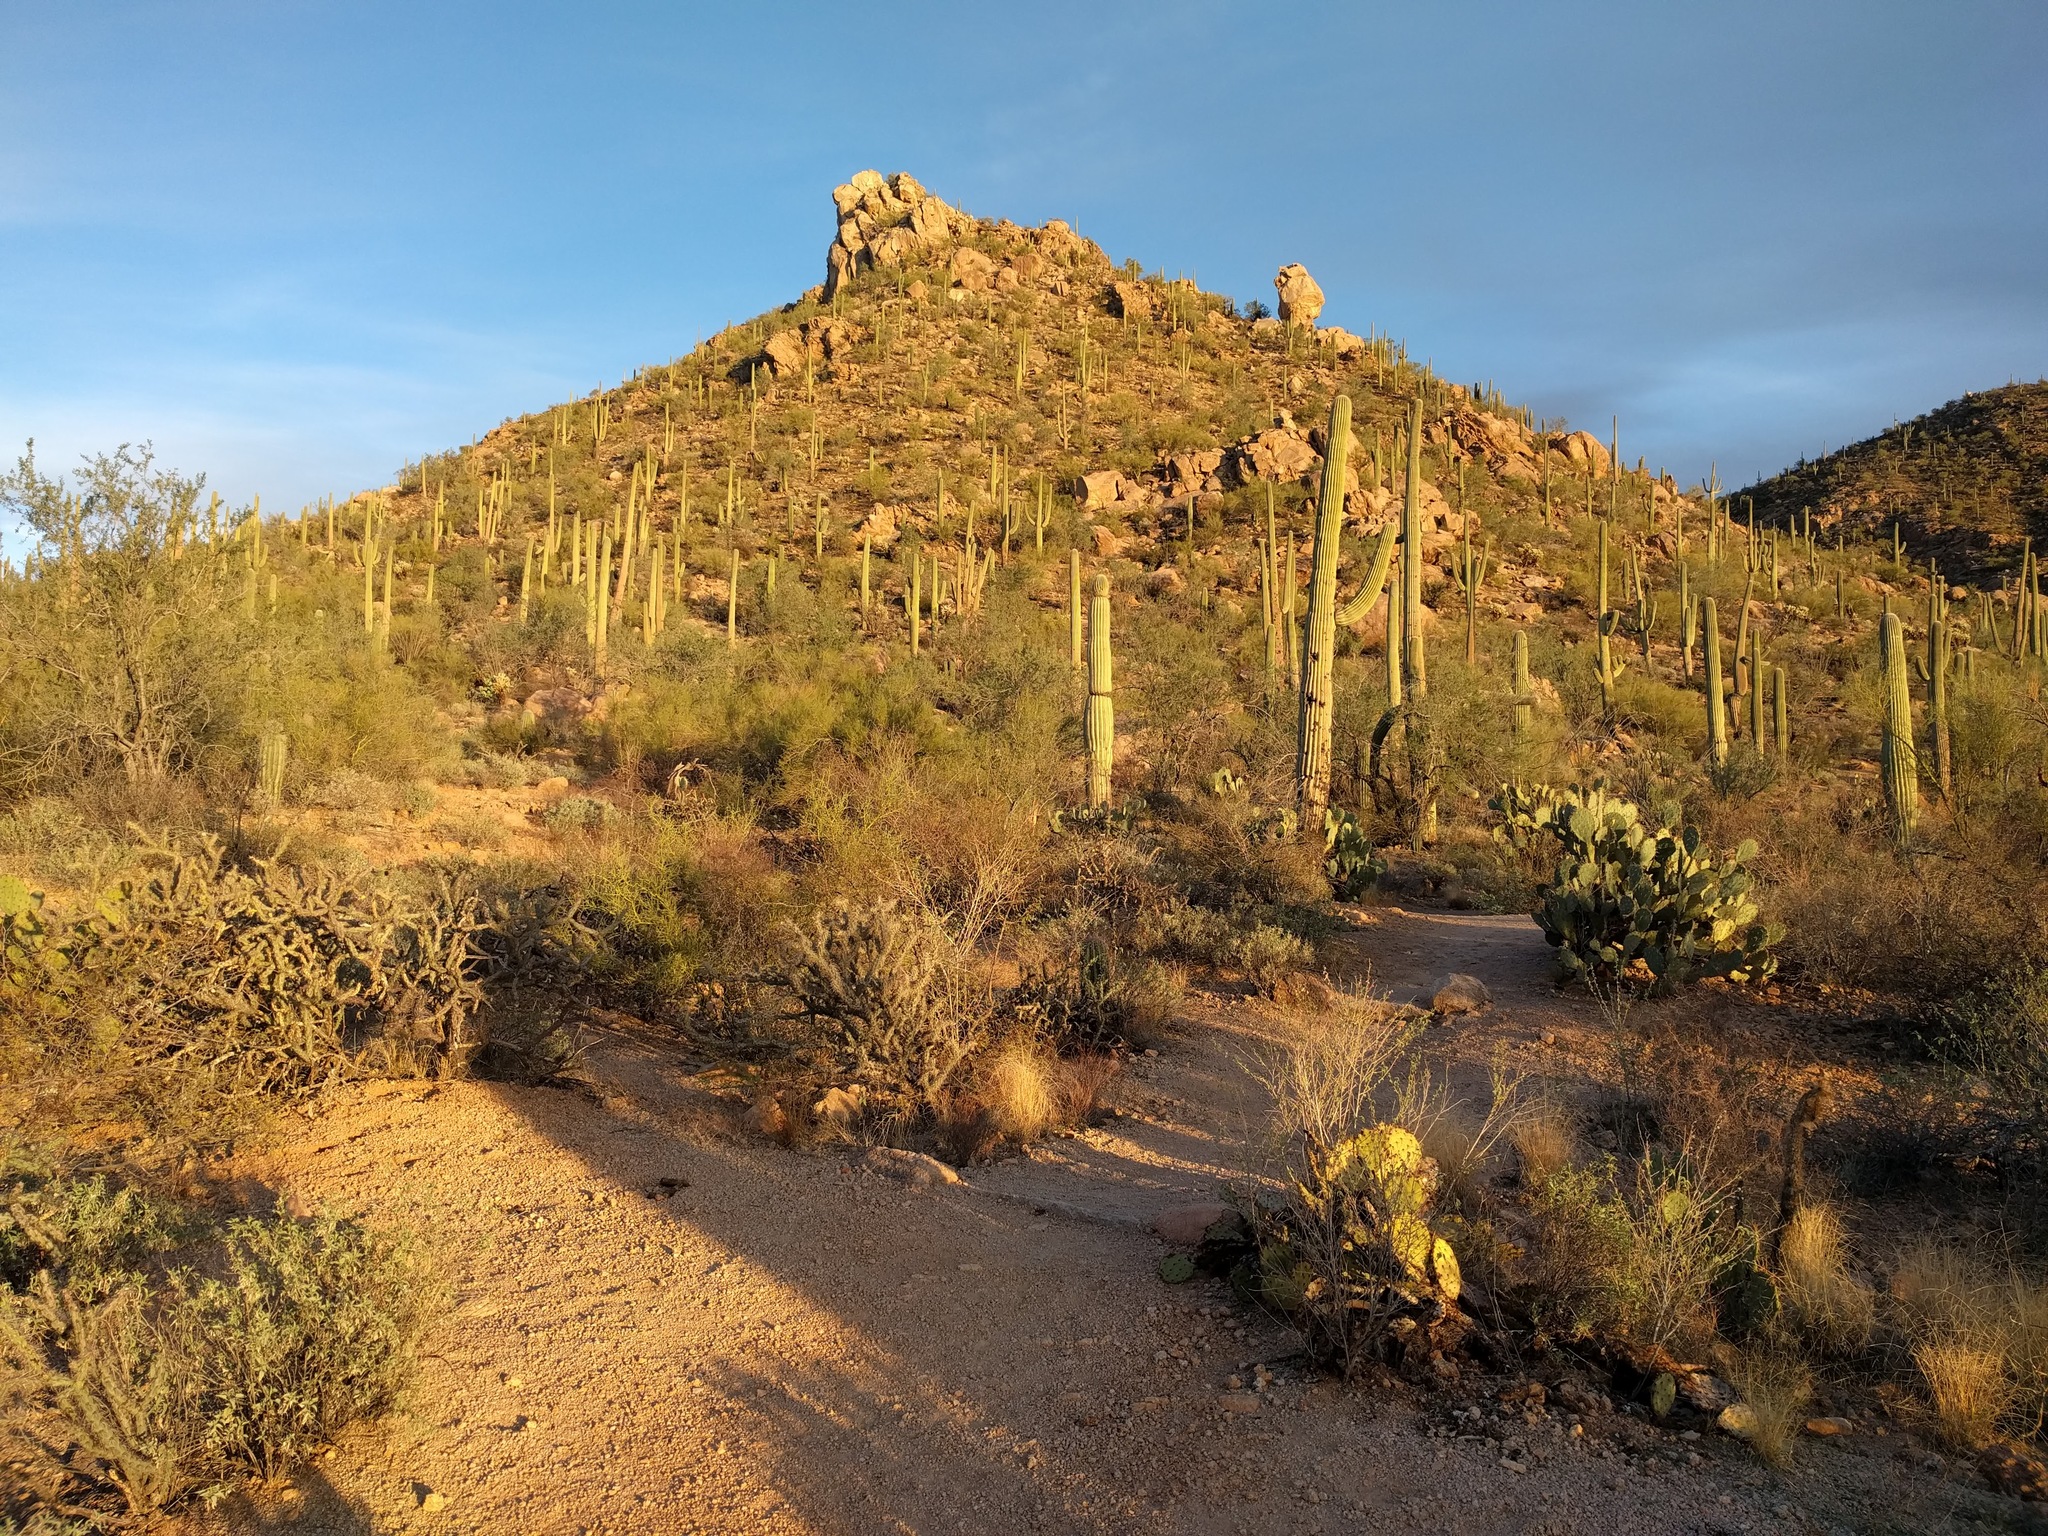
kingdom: Plantae
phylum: Tracheophyta
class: Magnoliopsida
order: Caryophyllales
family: Cactaceae
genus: Carnegiea
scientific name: Carnegiea gigantea
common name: Saguaro
